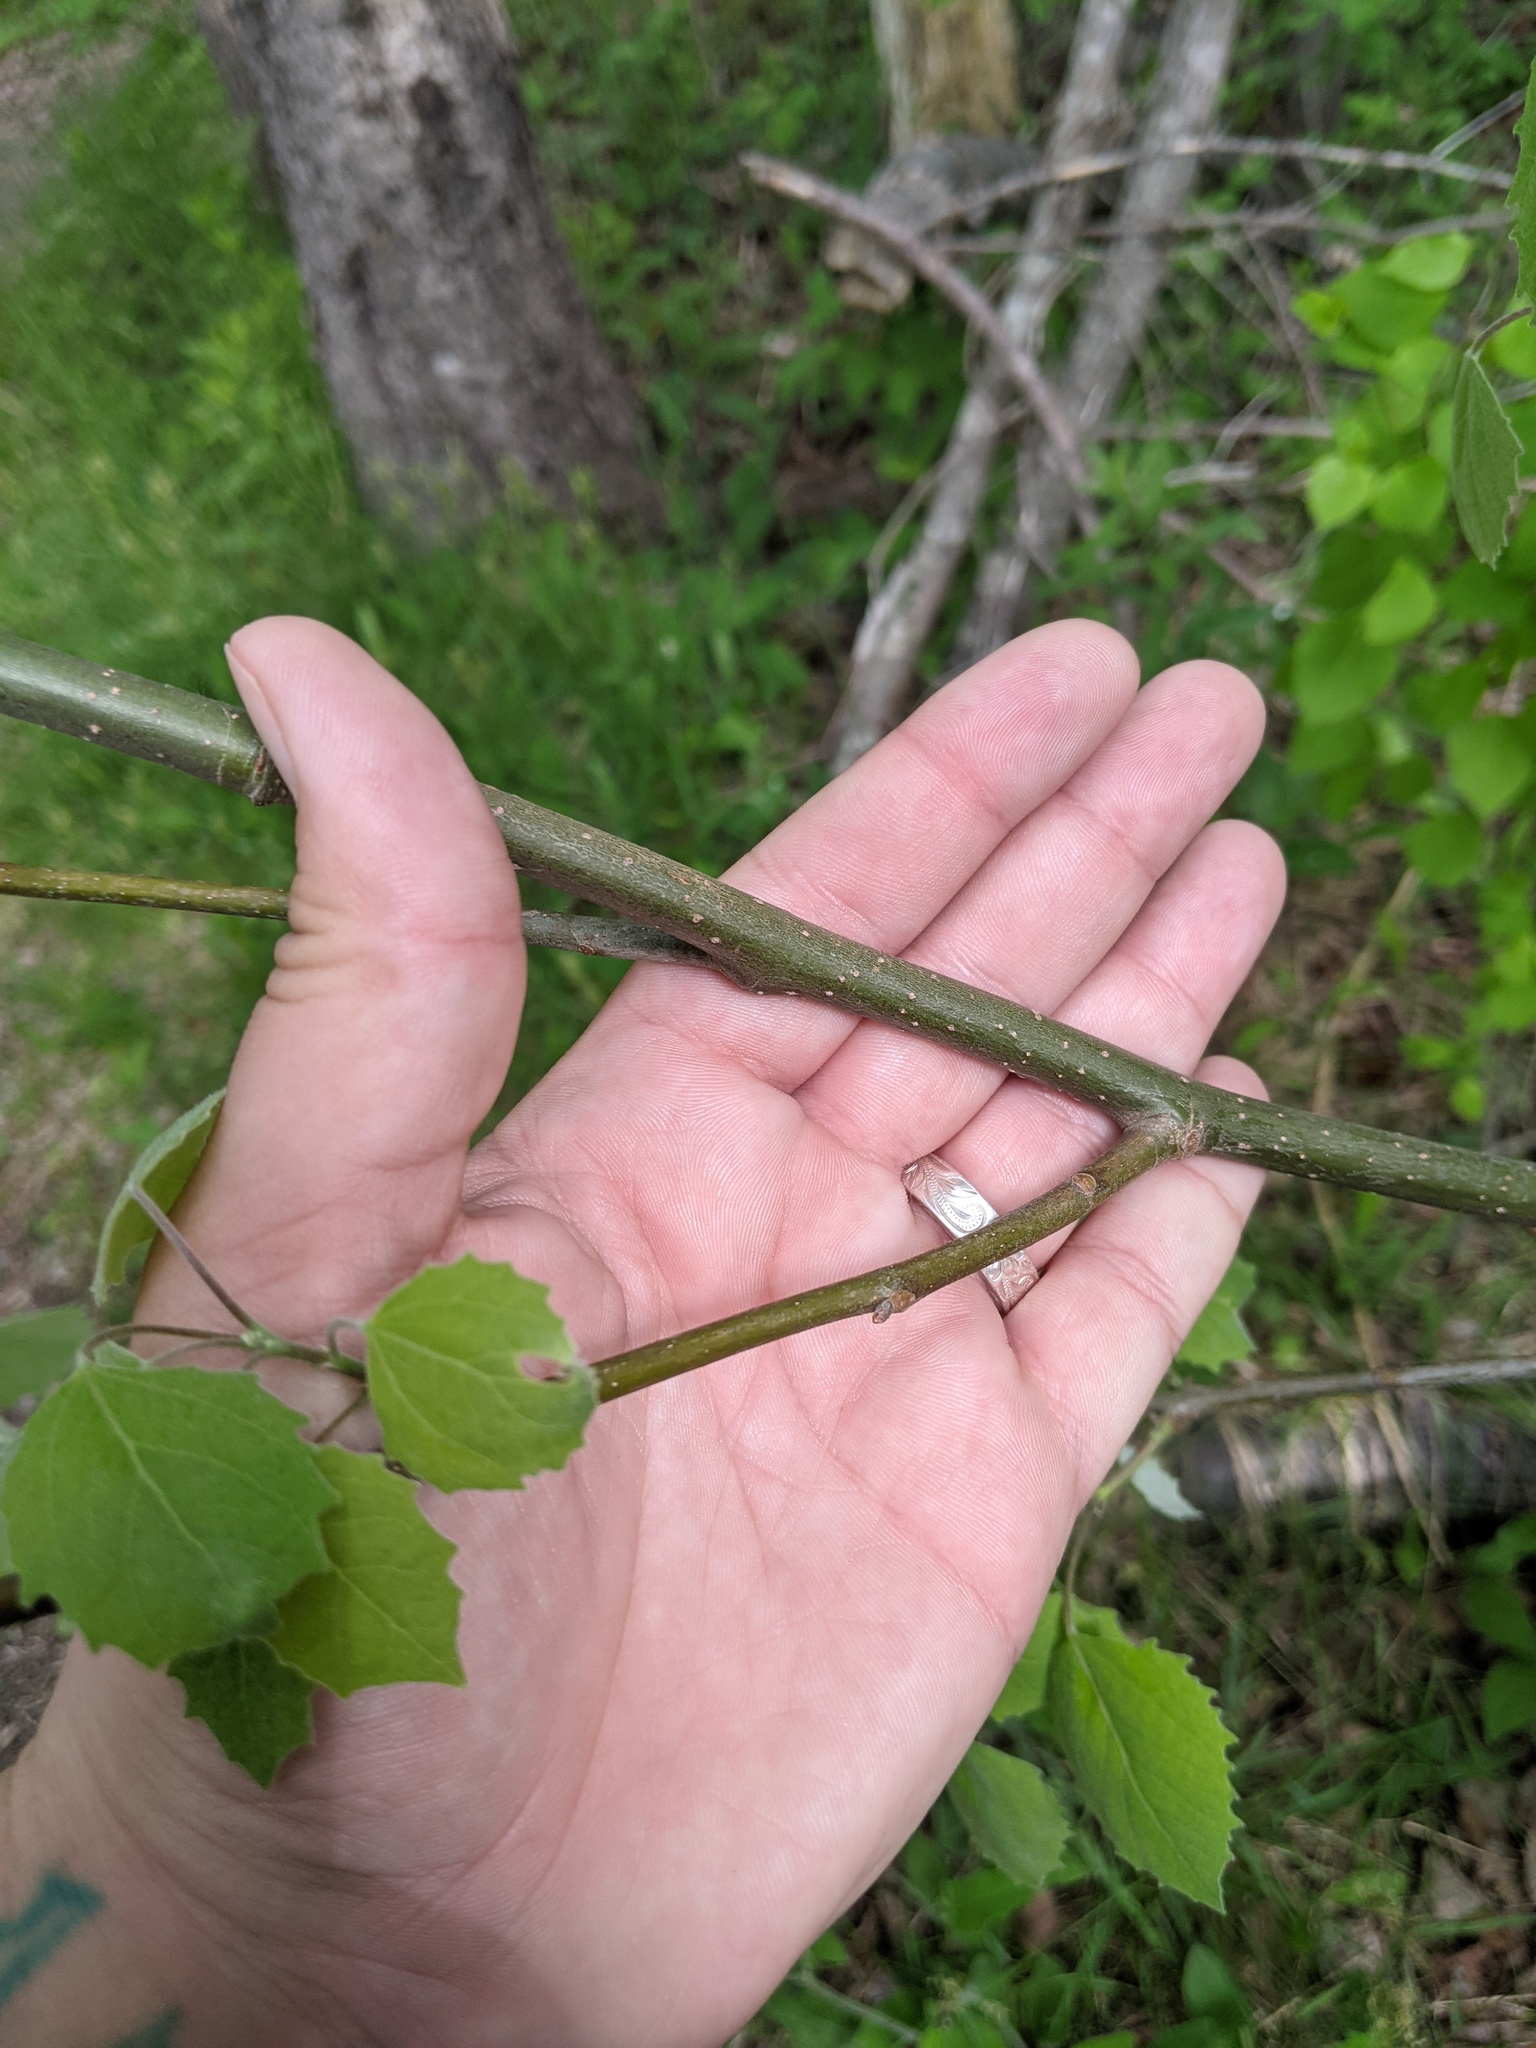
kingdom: Plantae
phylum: Tracheophyta
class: Magnoliopsida
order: Malpighiales
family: Salicaceae
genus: Populus
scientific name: Populus grandidentata
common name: Bigtooth aspen
